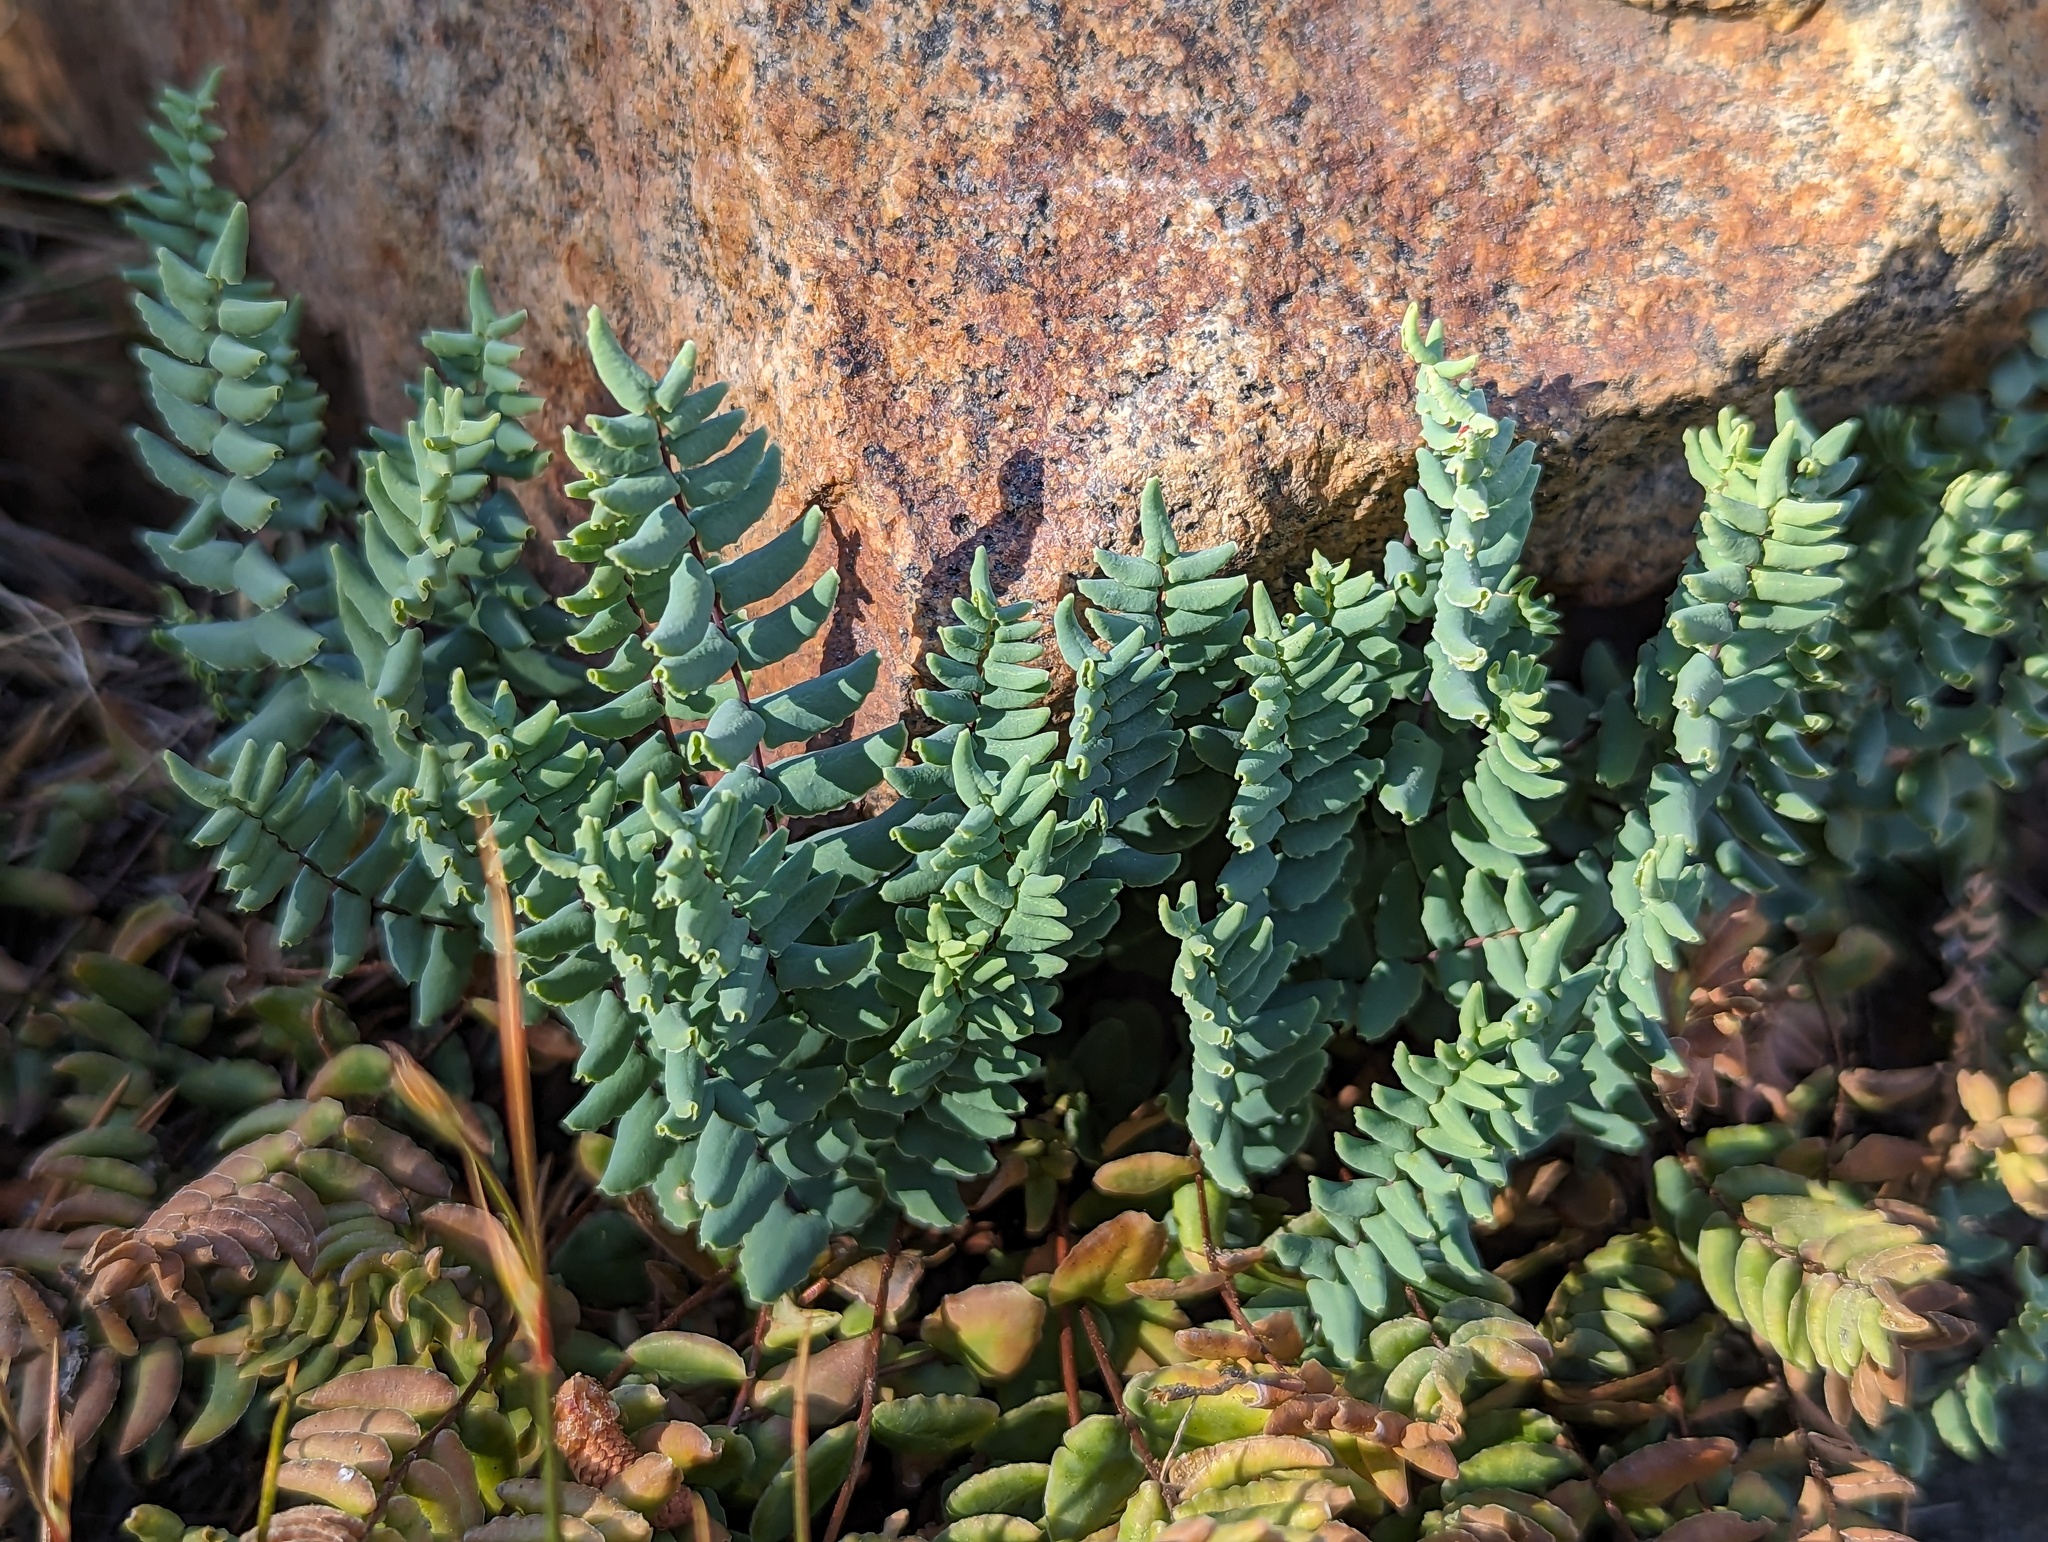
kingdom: Plantae
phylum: Tracheophyta
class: Polypodiopsida
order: Polypodiales
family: Pteridaceae
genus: Pellaea
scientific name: Pellaea bridgesii
